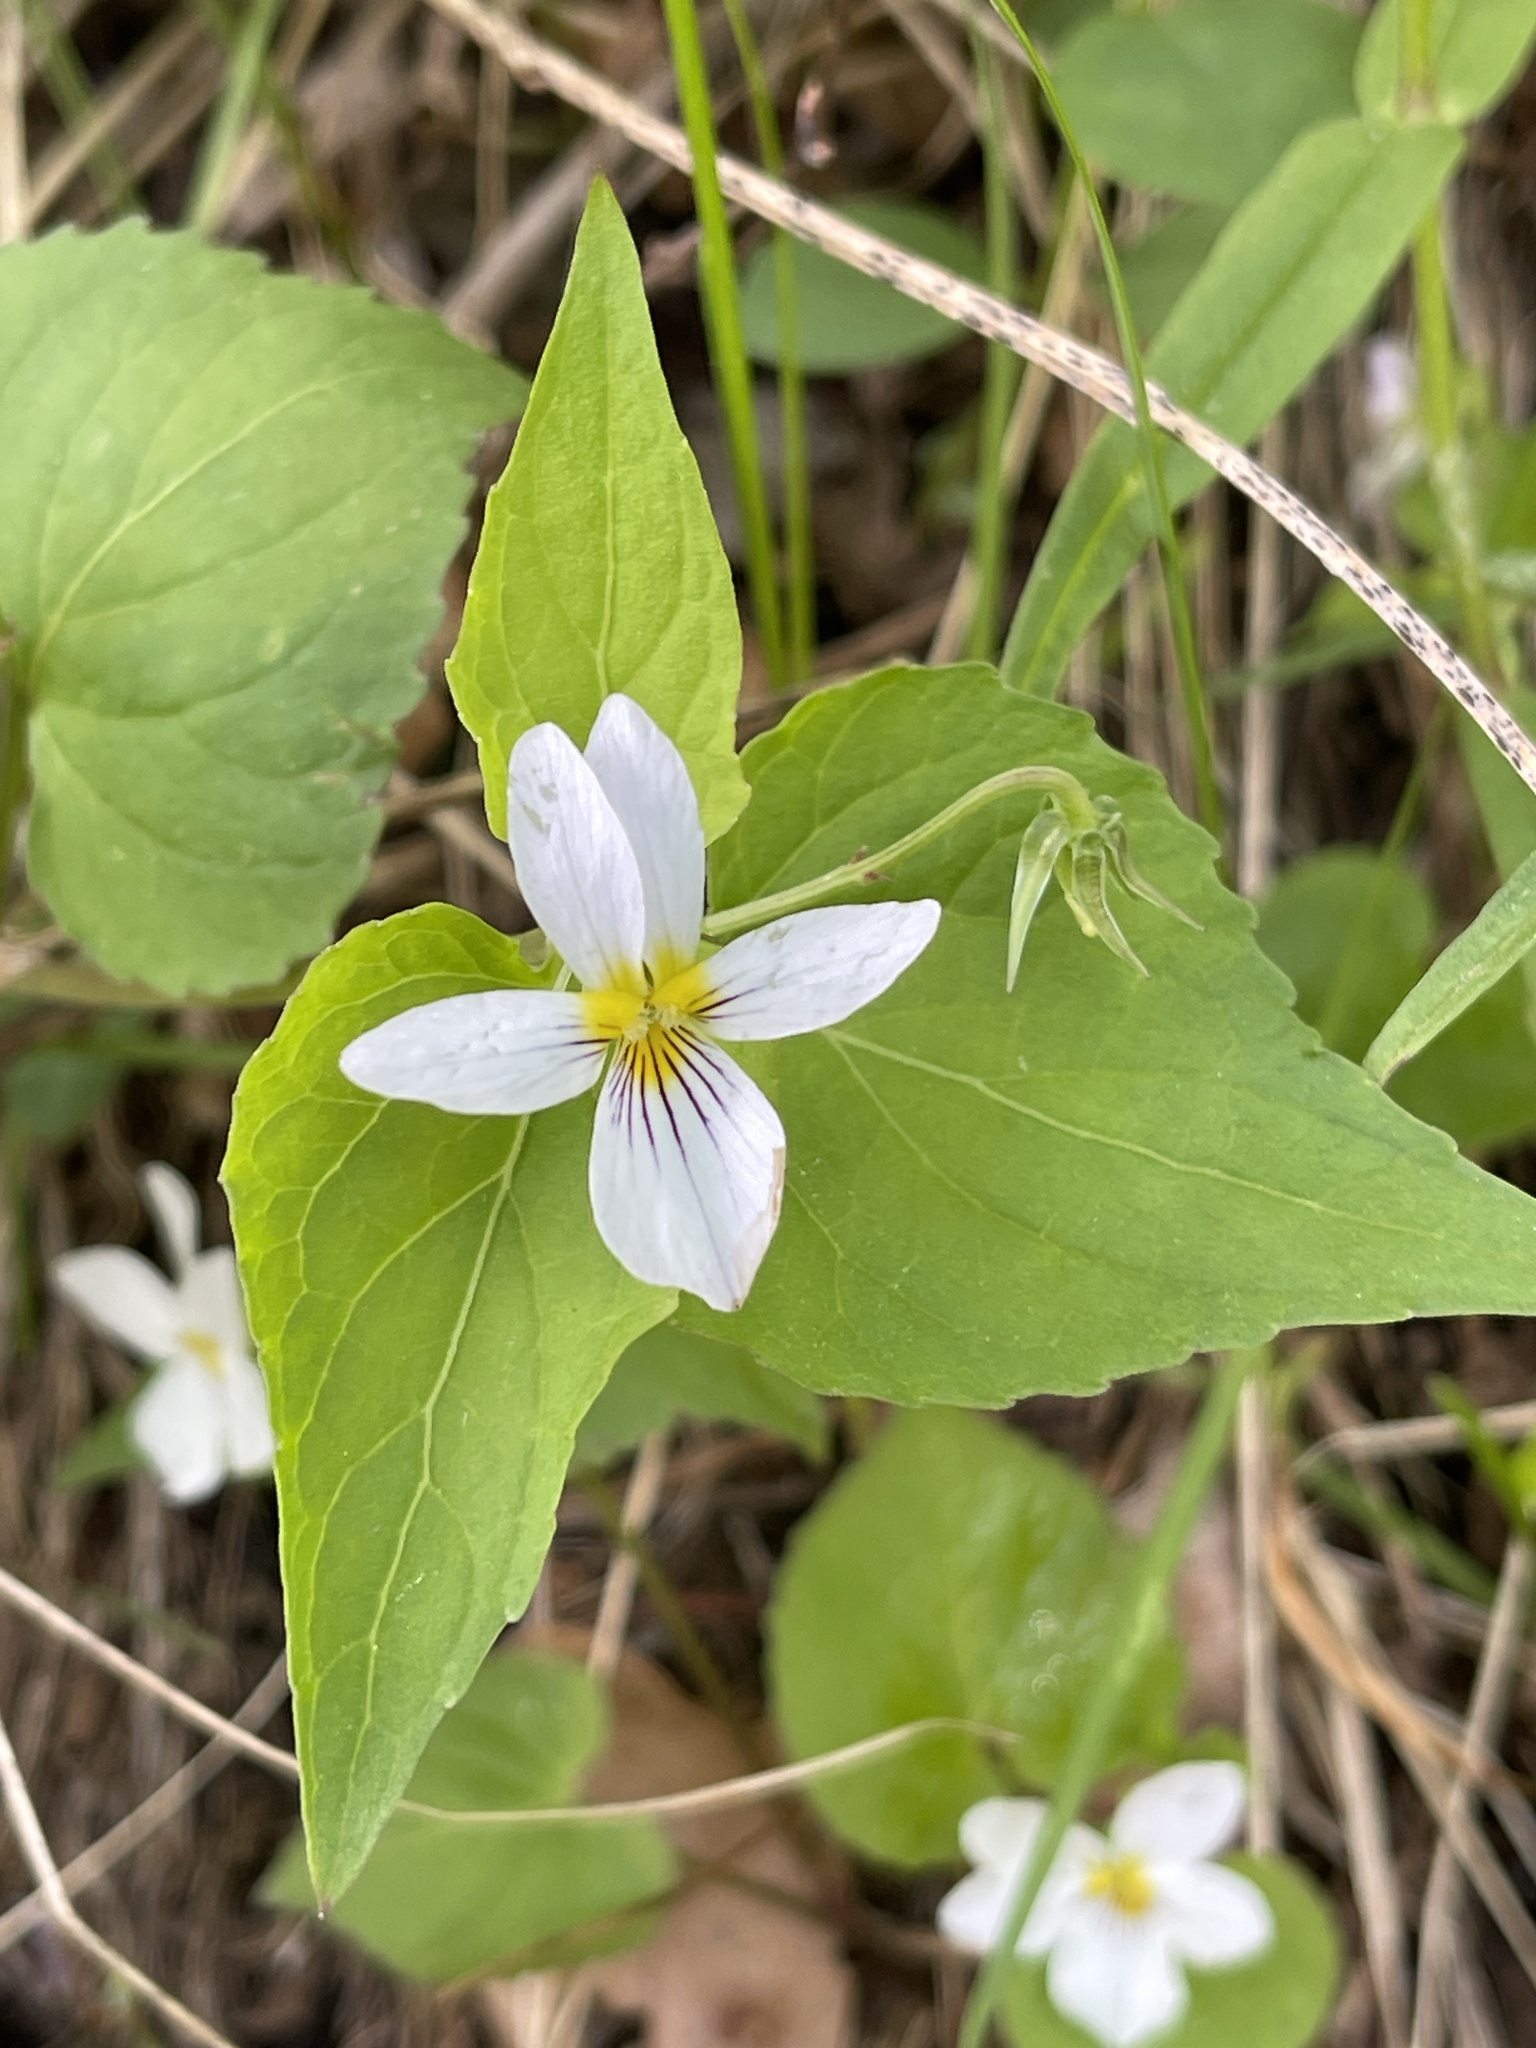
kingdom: Plantae
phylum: Tracheophyta
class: Magnoliopsida
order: Malpighiales
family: Violaceae
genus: Viola
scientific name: Viola canadensis
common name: Canada violet
